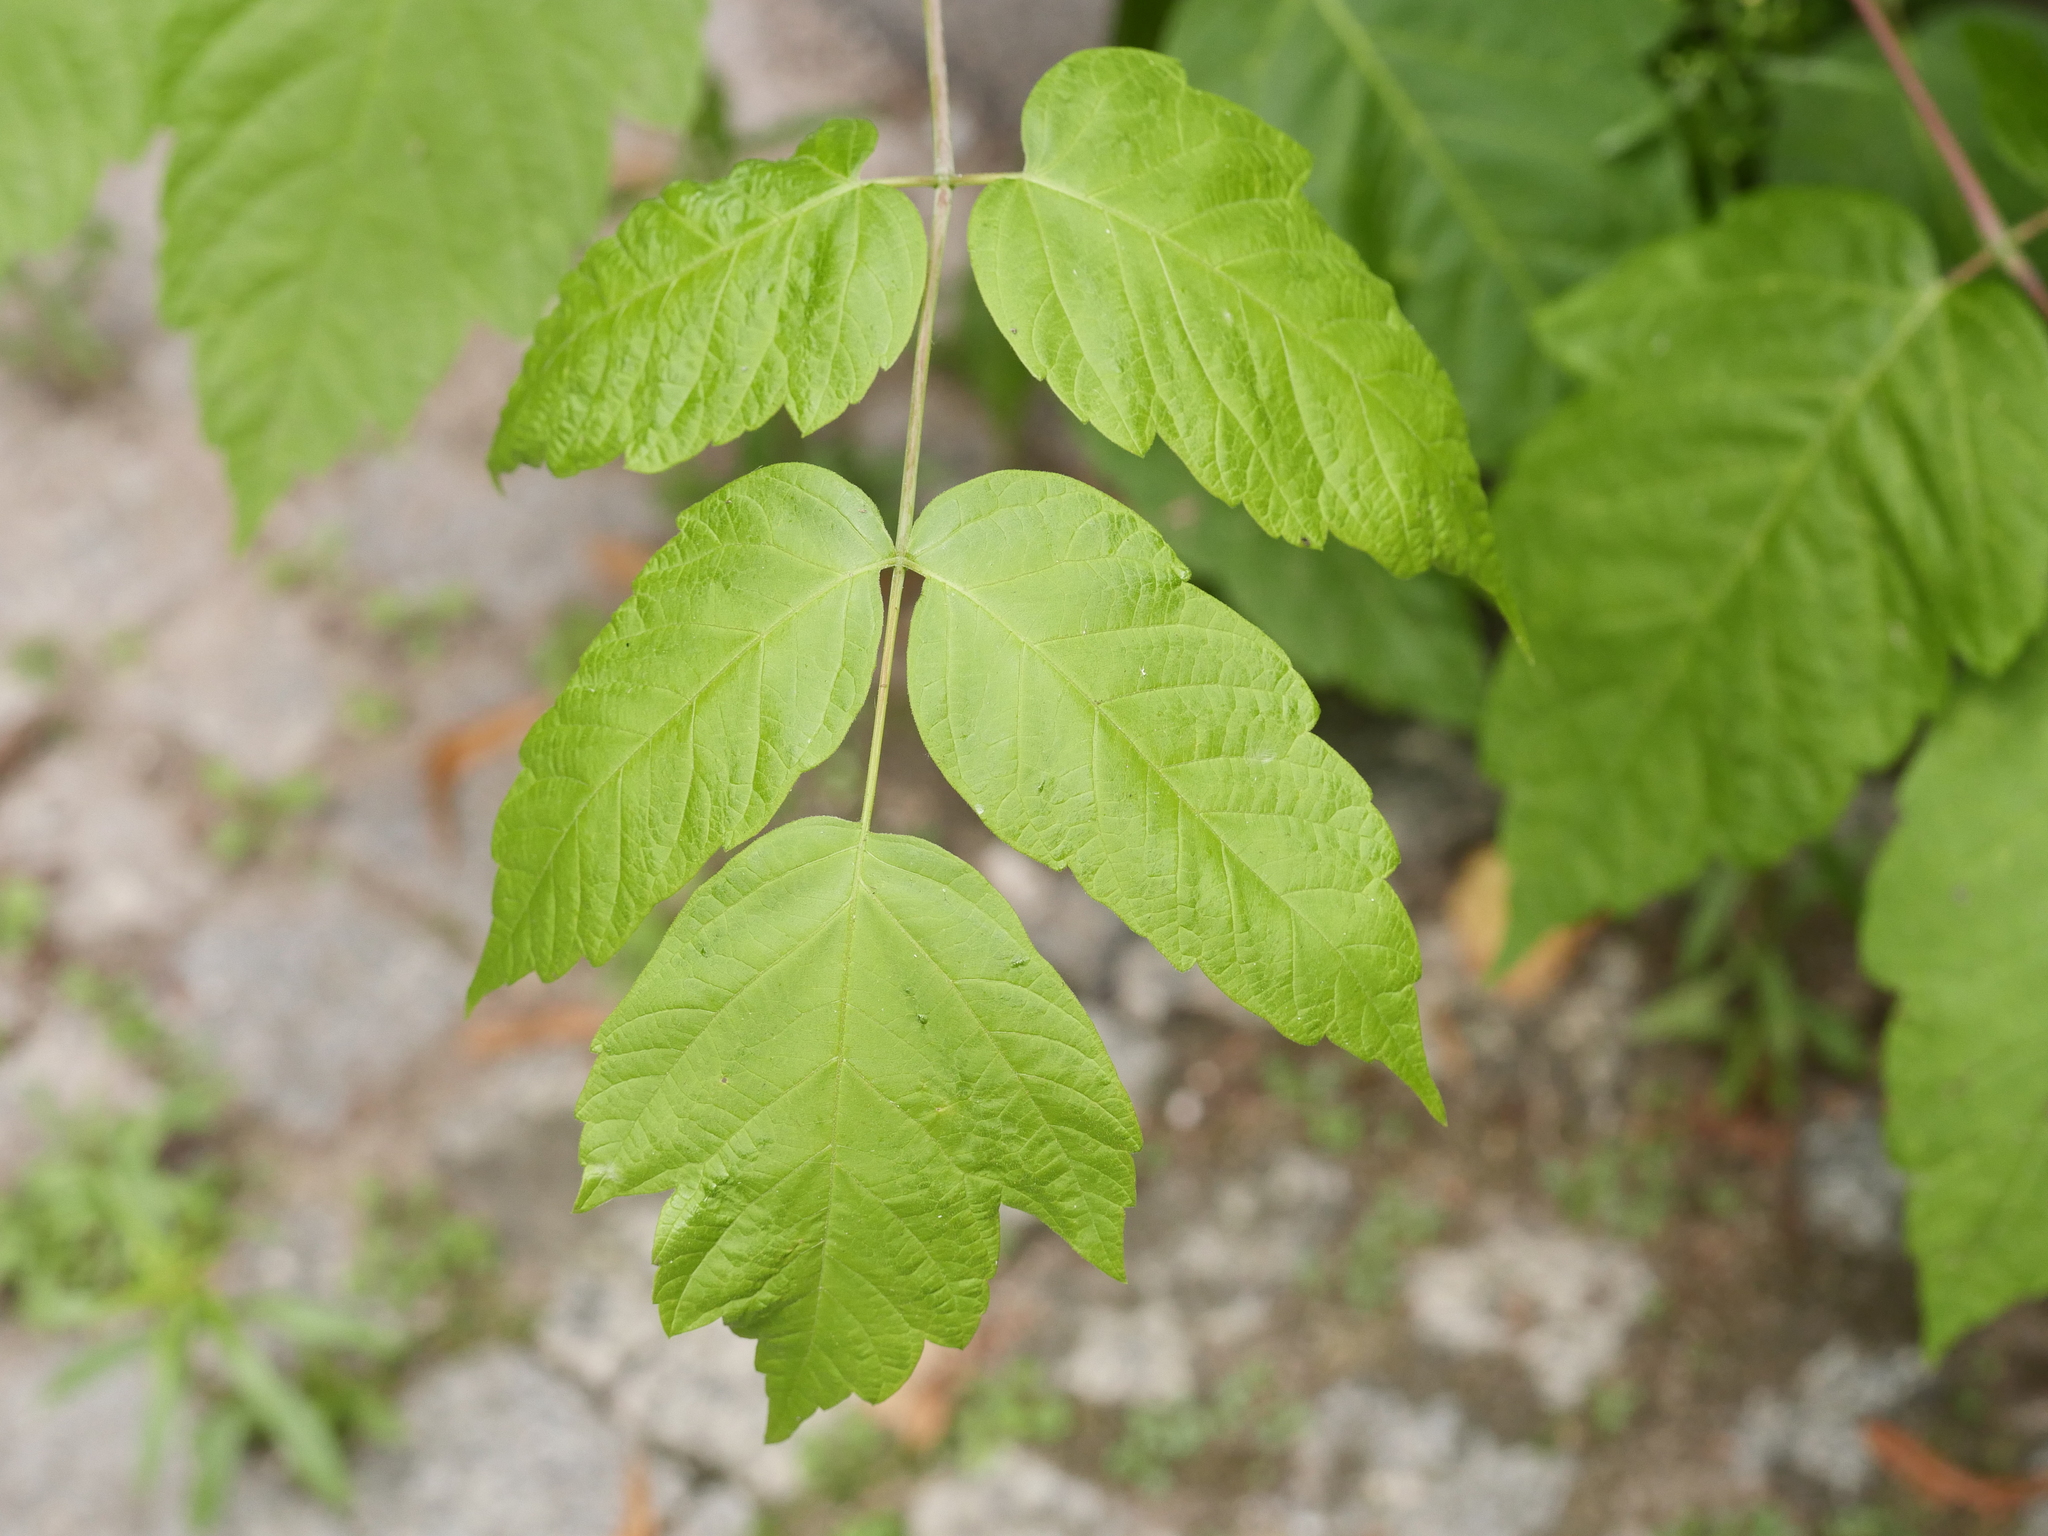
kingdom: Plantae
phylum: Tracheophyta
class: Magnoliopsida
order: Sapindales
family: Sapindaceae
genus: Acer
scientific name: Acer negundo
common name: Ashleaf maple
